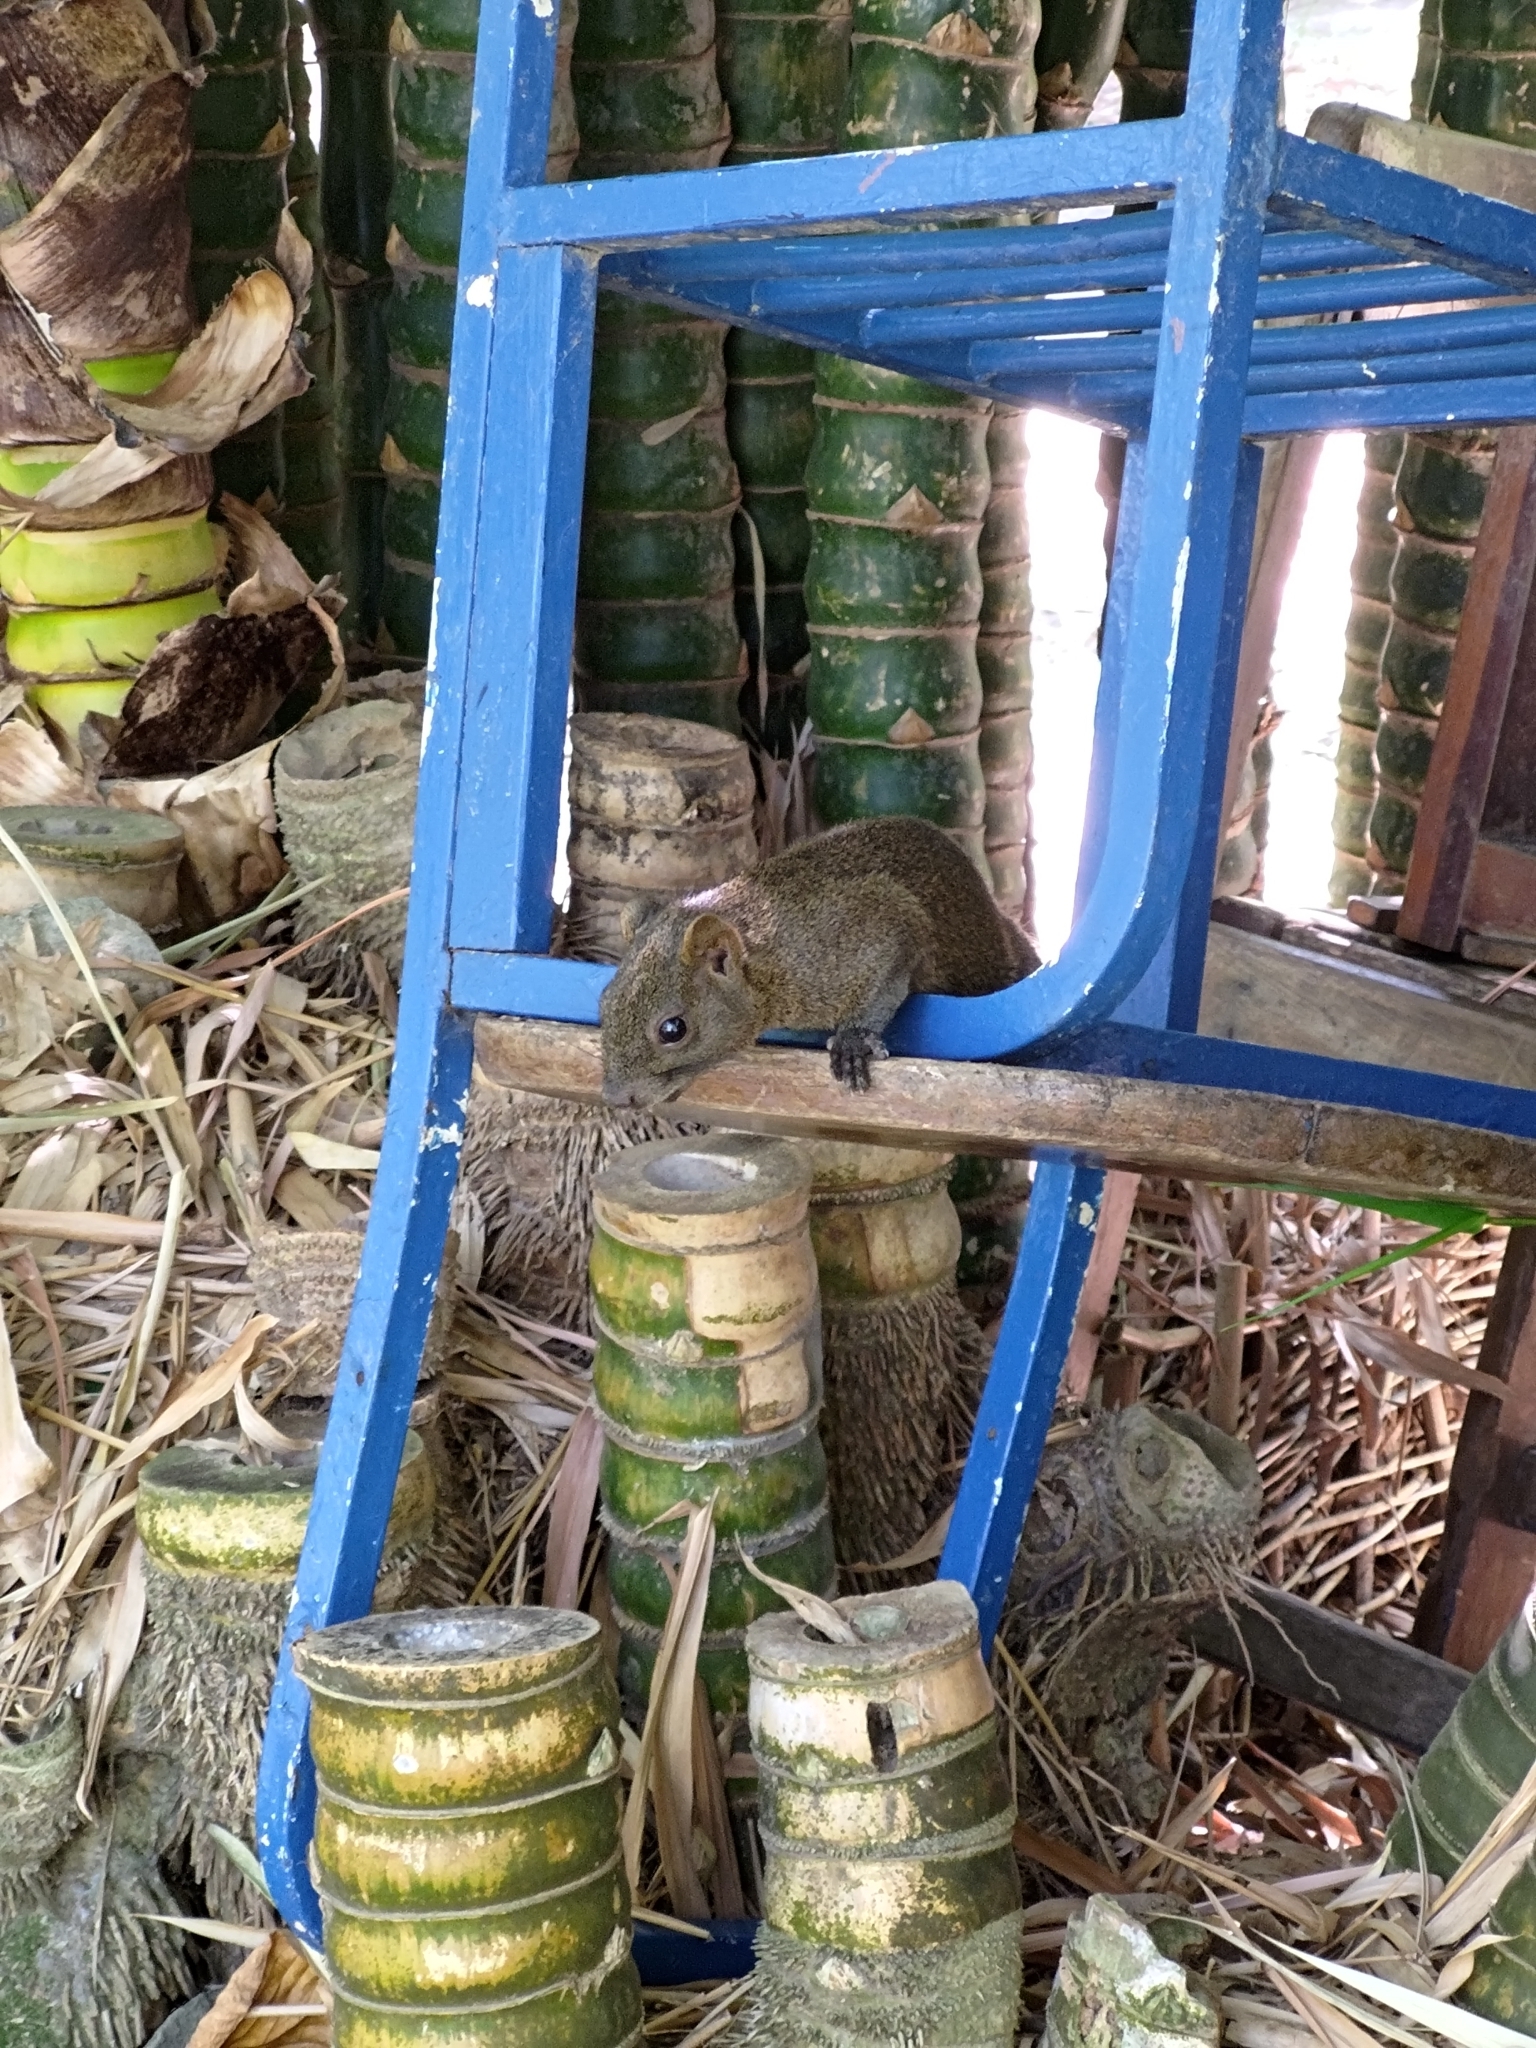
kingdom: Animalia
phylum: Chordata
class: Mammalia
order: Rodentia
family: Sciuridae
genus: Callosciurus
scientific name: Callosciurus erythraeus
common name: Pallas's squirrel
